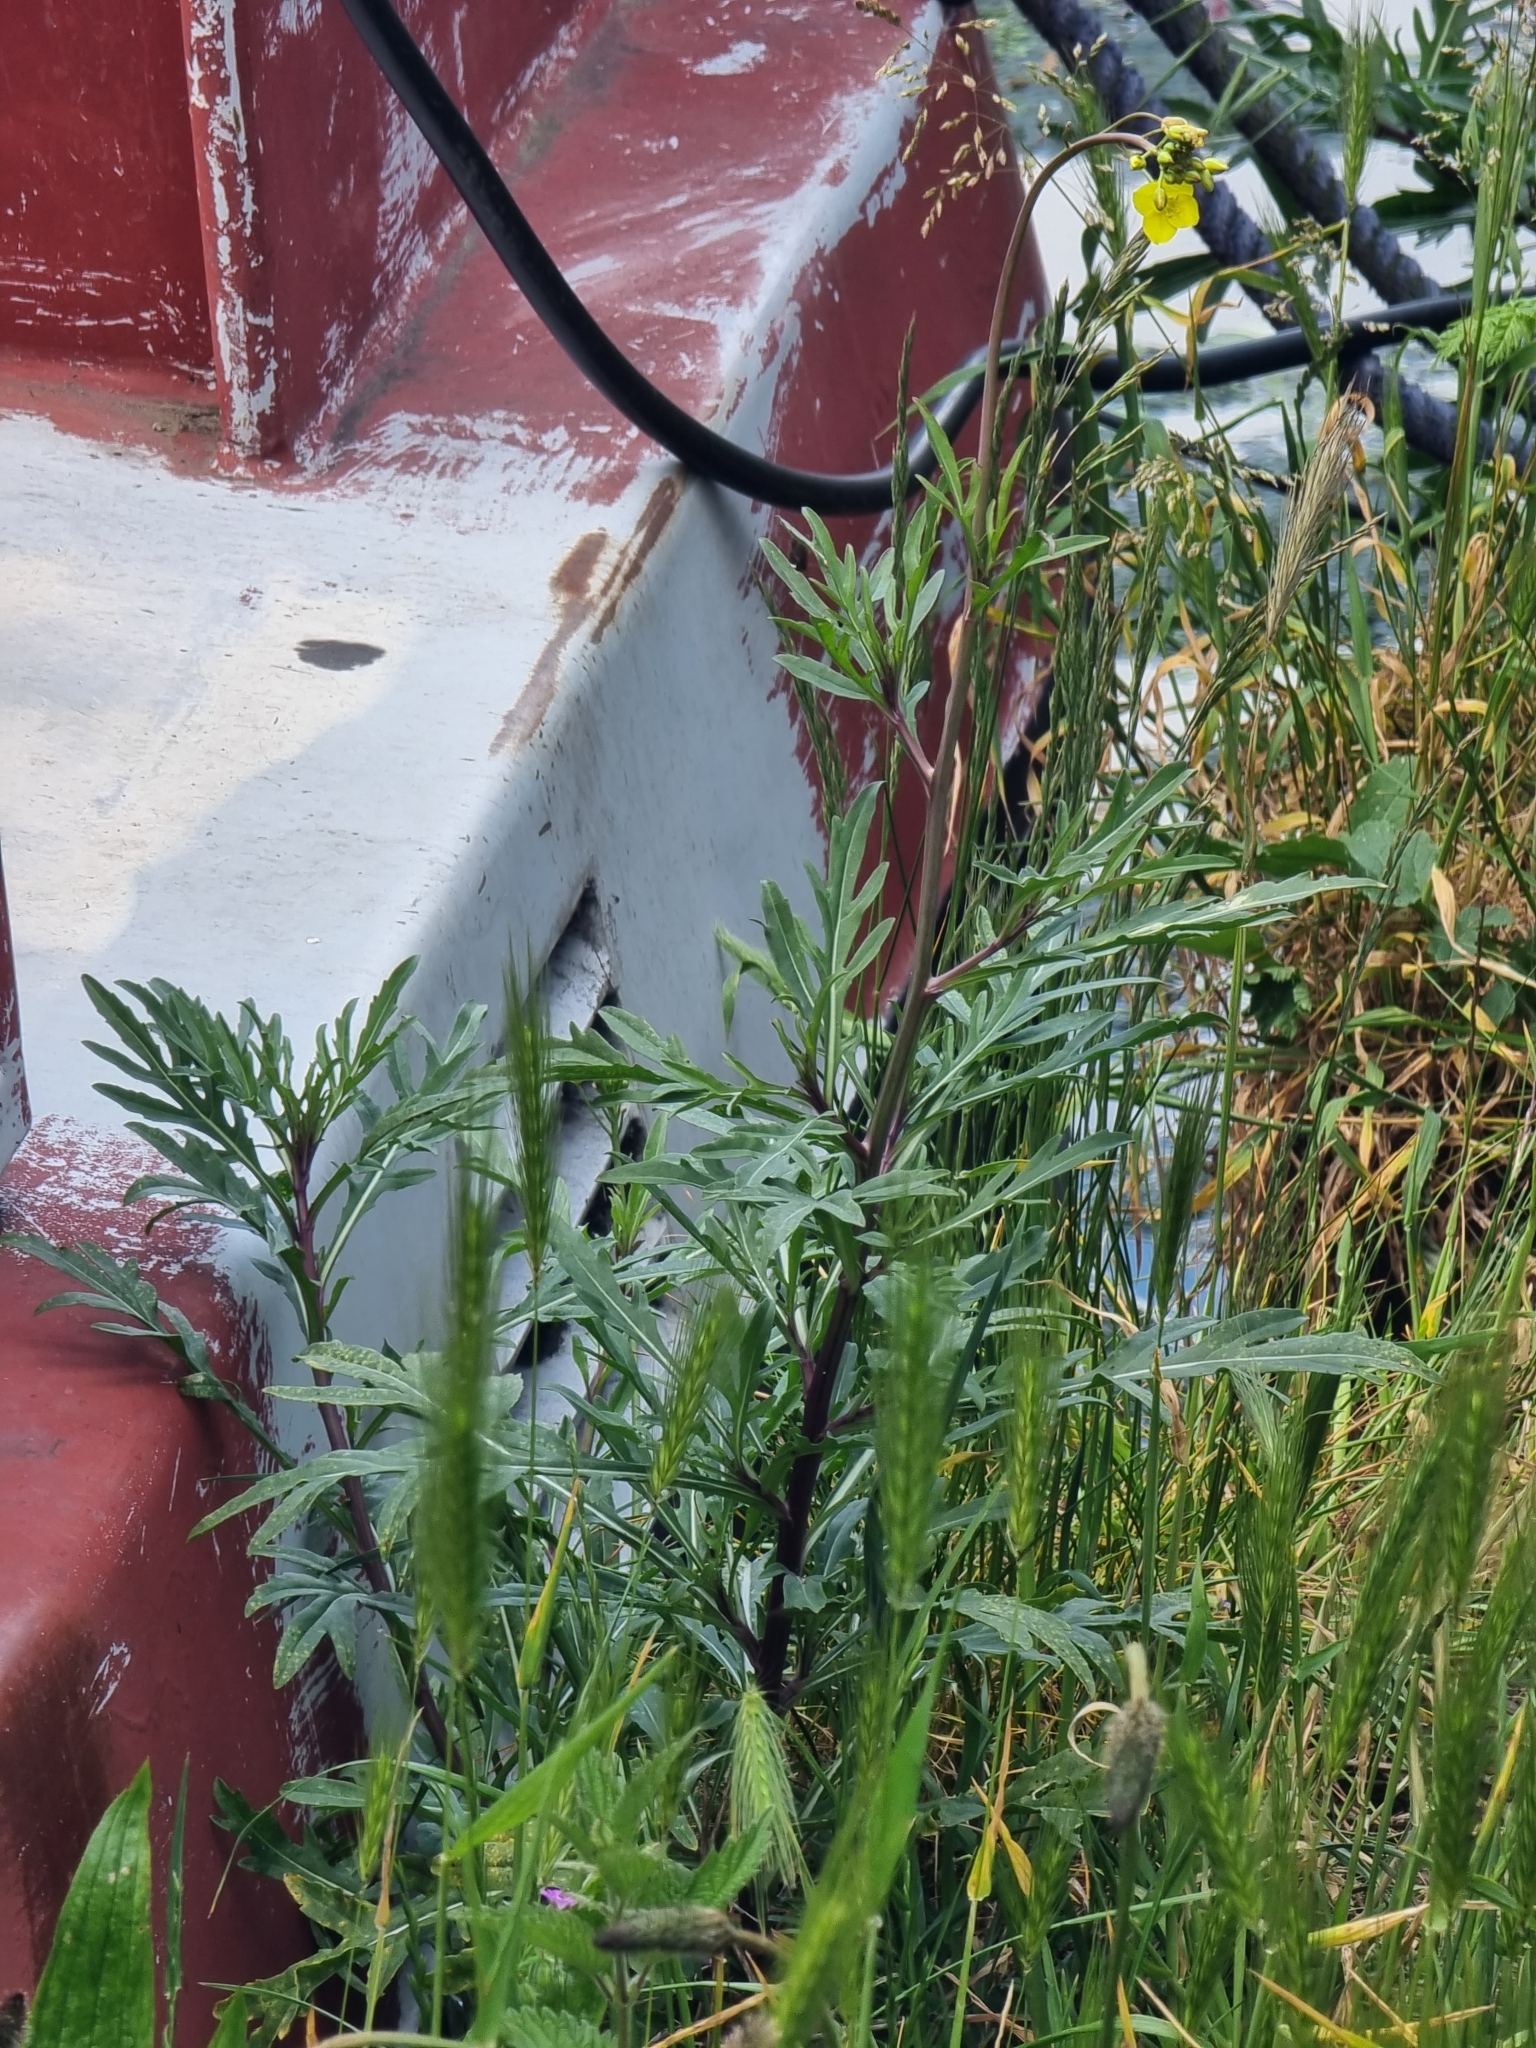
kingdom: Plantae
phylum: Tracheophyta
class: Magnoliopsida
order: Brassicales
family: Brassicaceae
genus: Diplotaxis
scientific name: Diplotaxis tenuifolia
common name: Perennial wall-rocket
